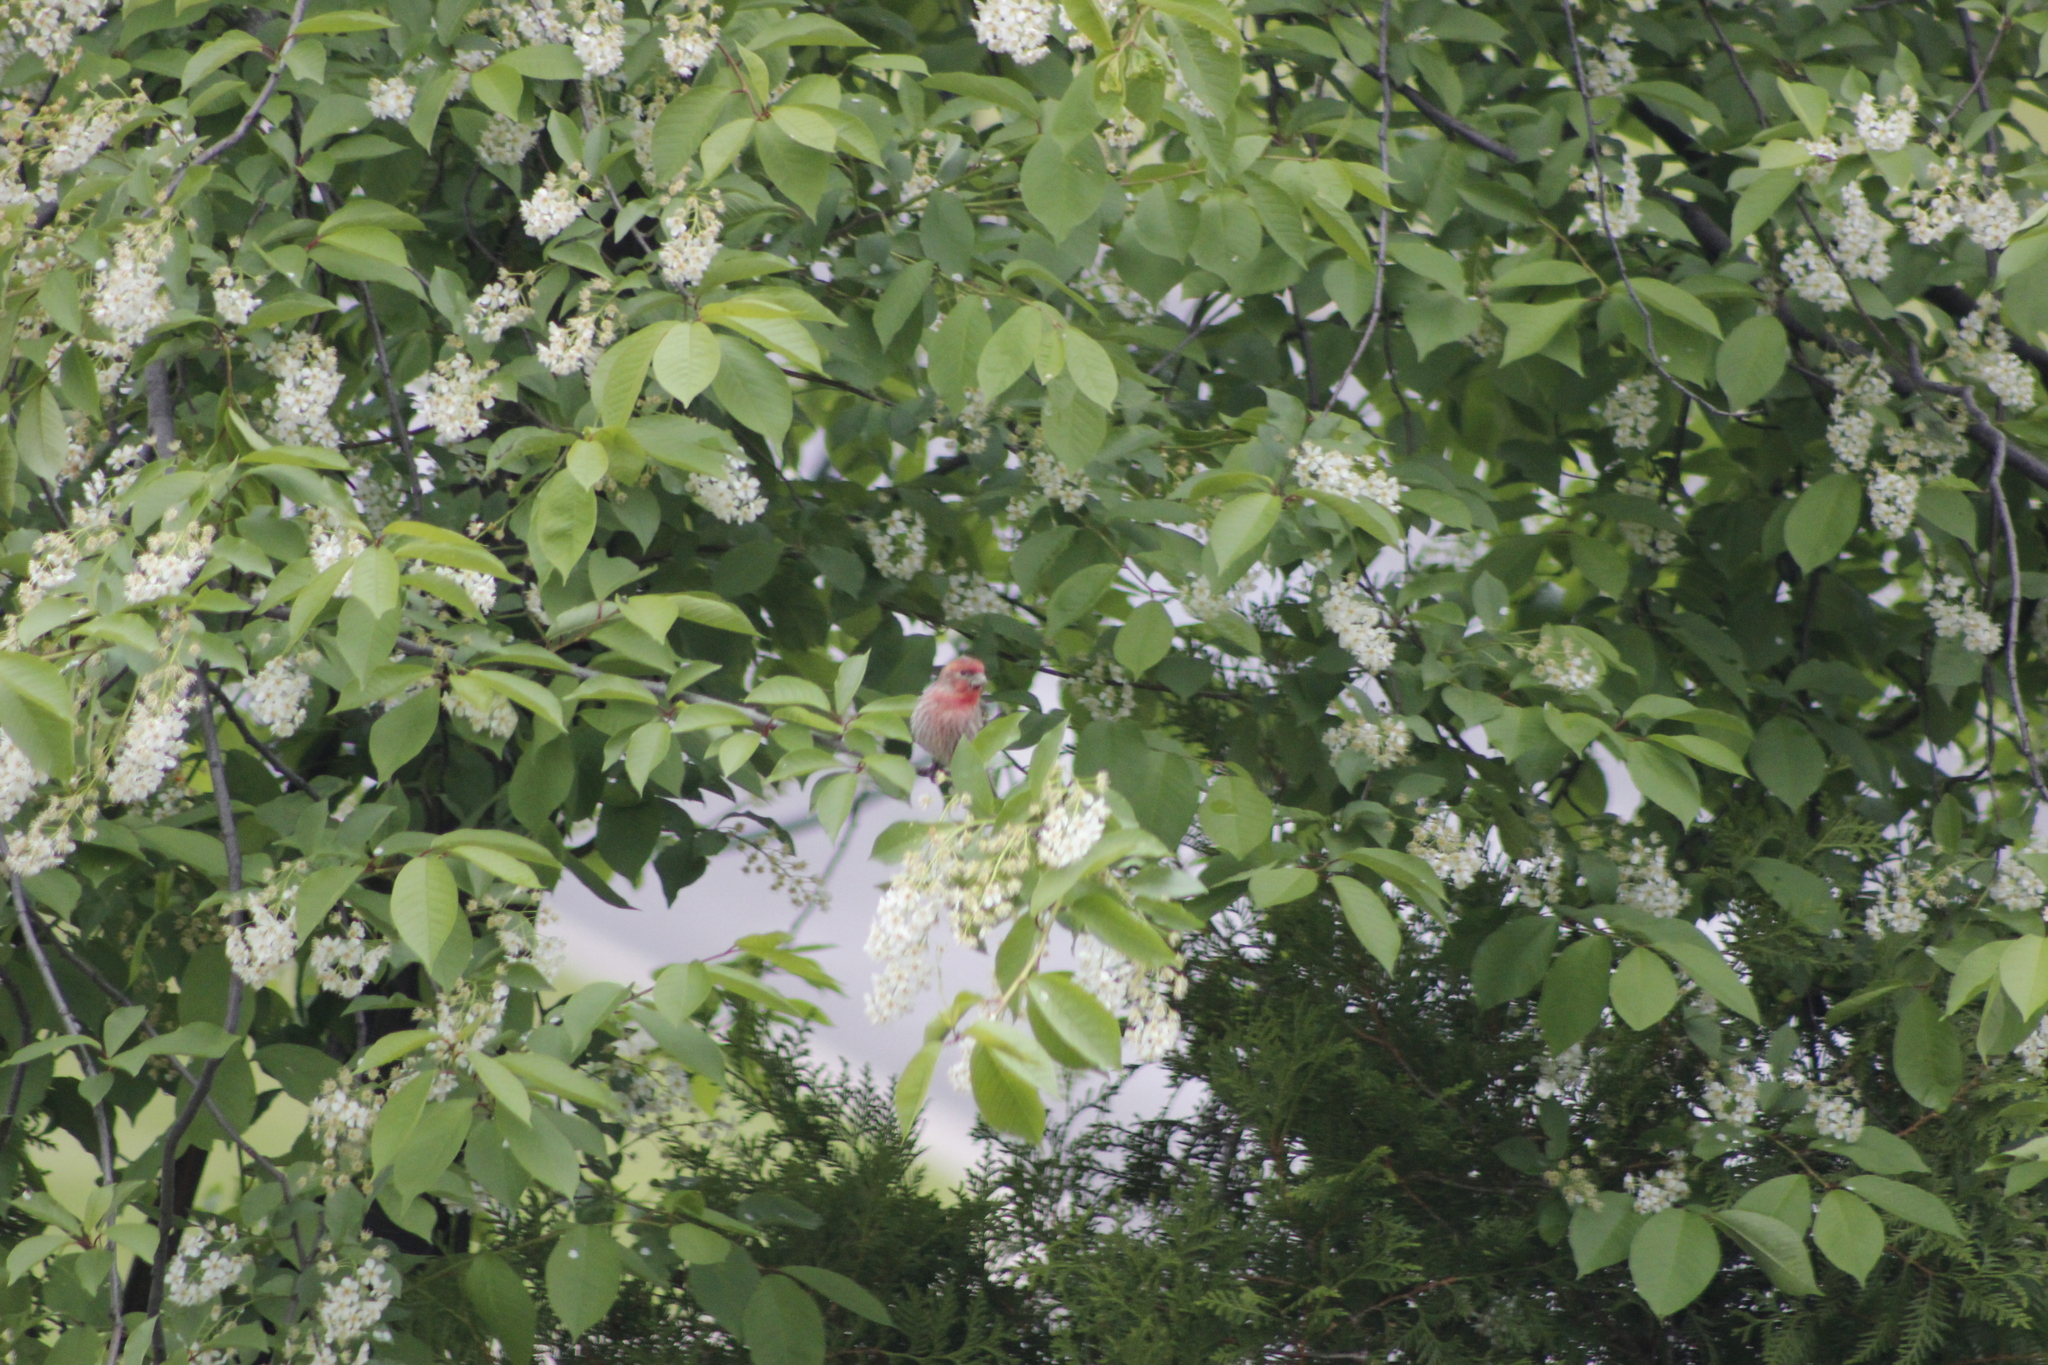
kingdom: Animalia
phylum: Chordata
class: Aves
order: Passeriformes
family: Fringillidae
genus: Haemorhous
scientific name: Haemorhous mexicanus
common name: House finch
